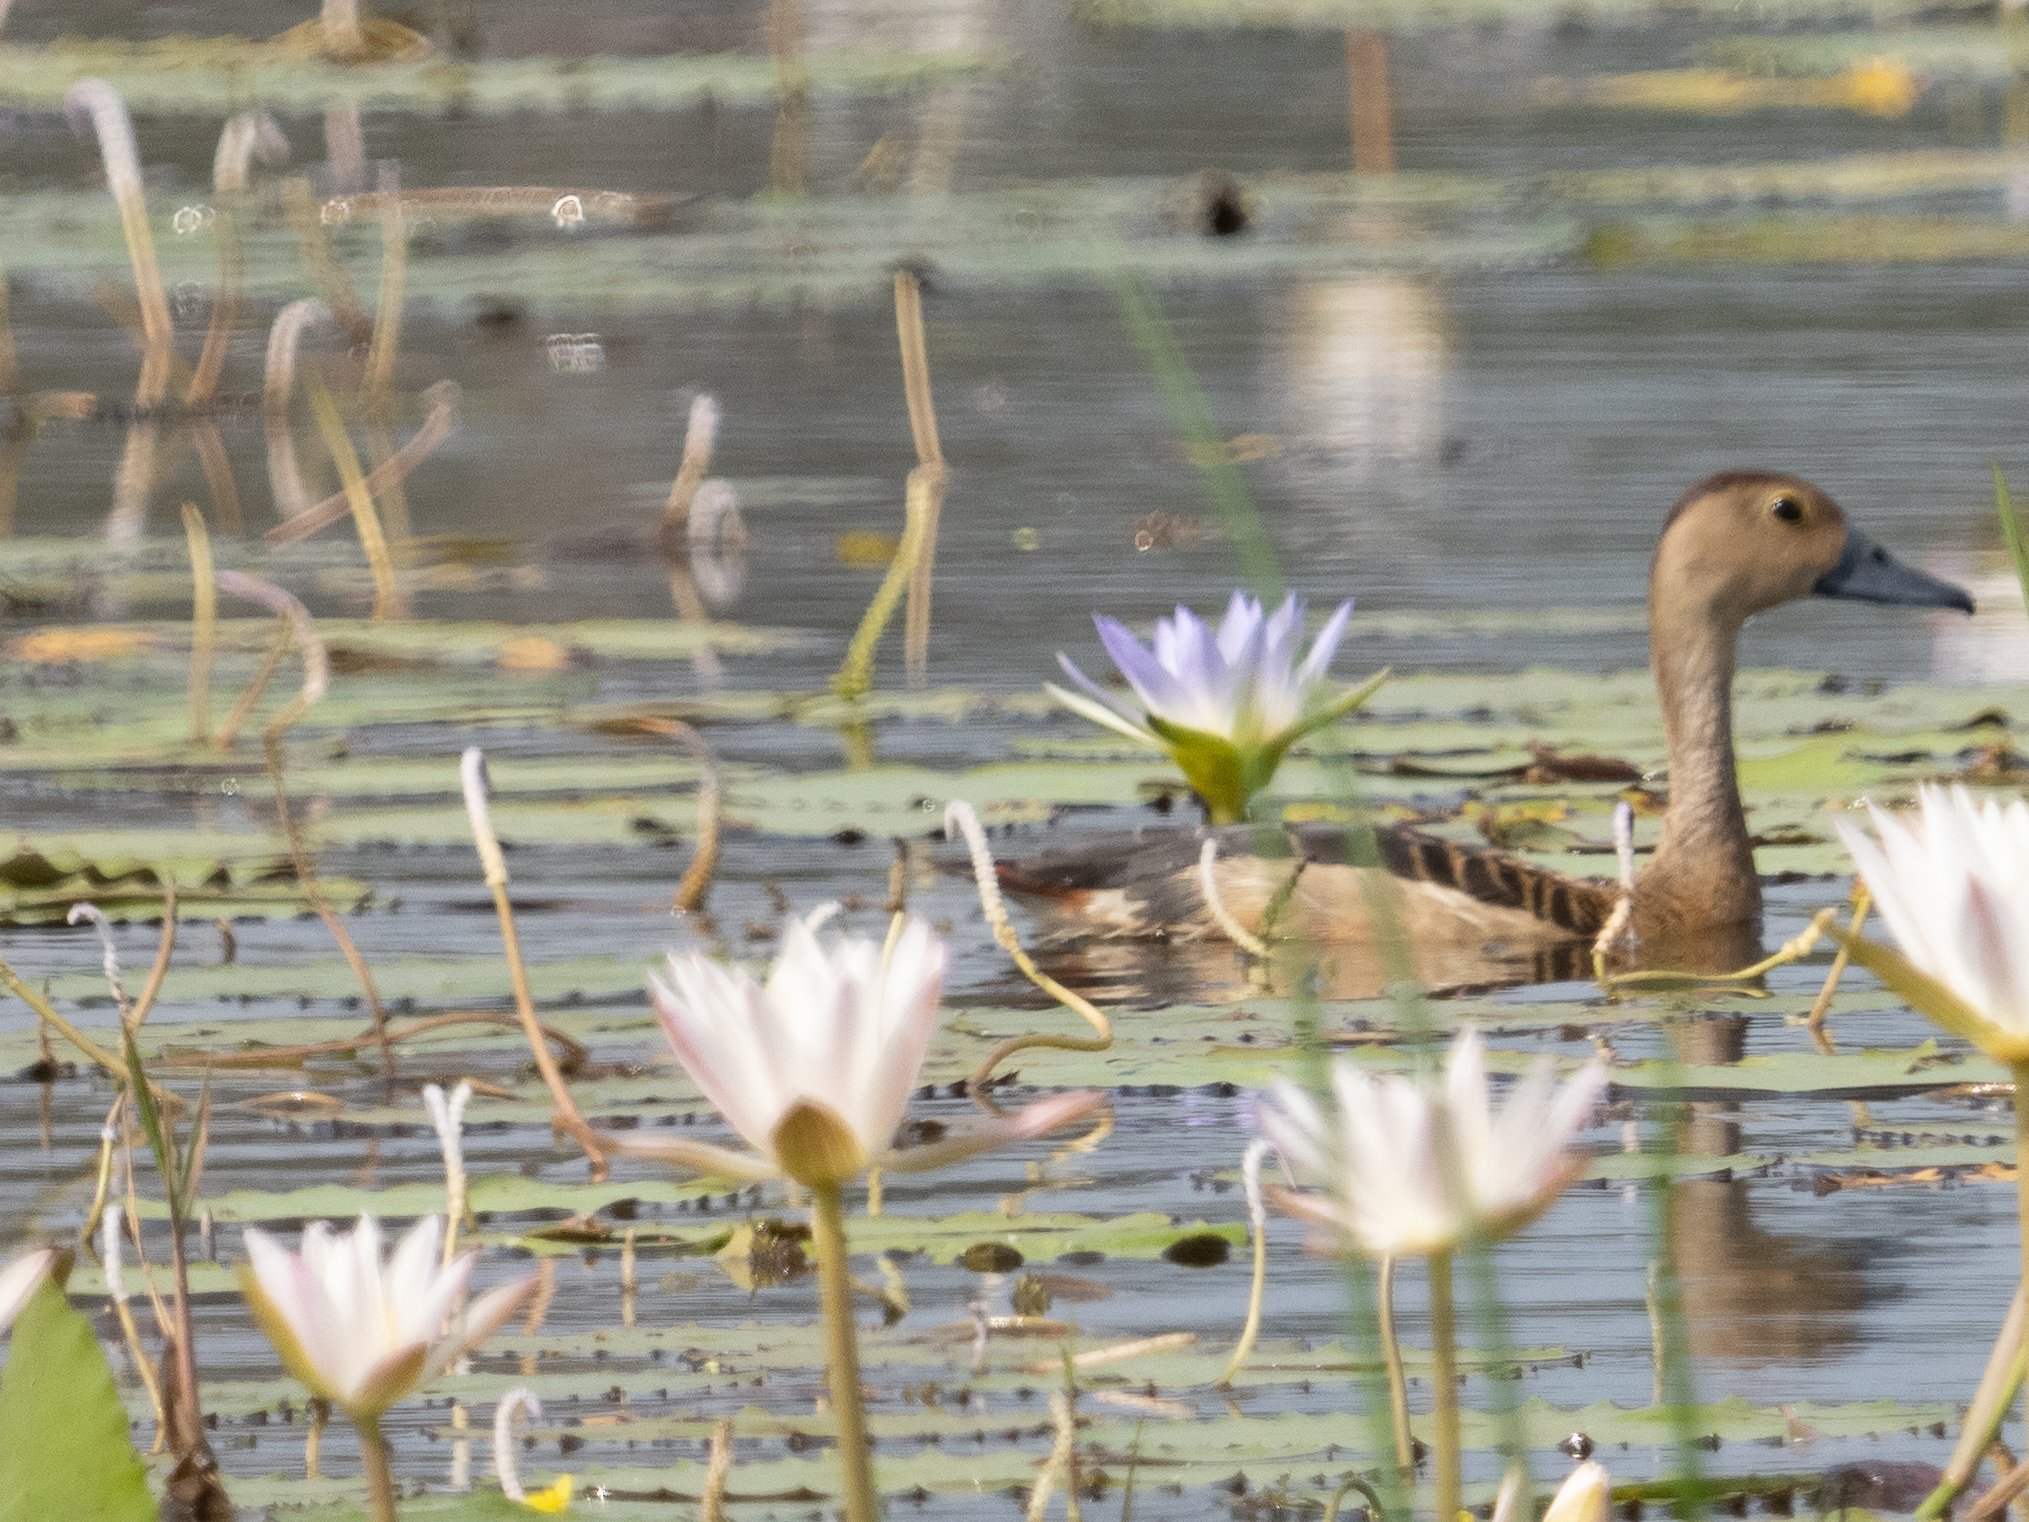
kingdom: Animalia
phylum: Chordata
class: Aves
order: Anseriformes
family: Anatidae
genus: Dendrocygna
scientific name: Dendrocygna javanica
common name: Lesser whistling-duck
